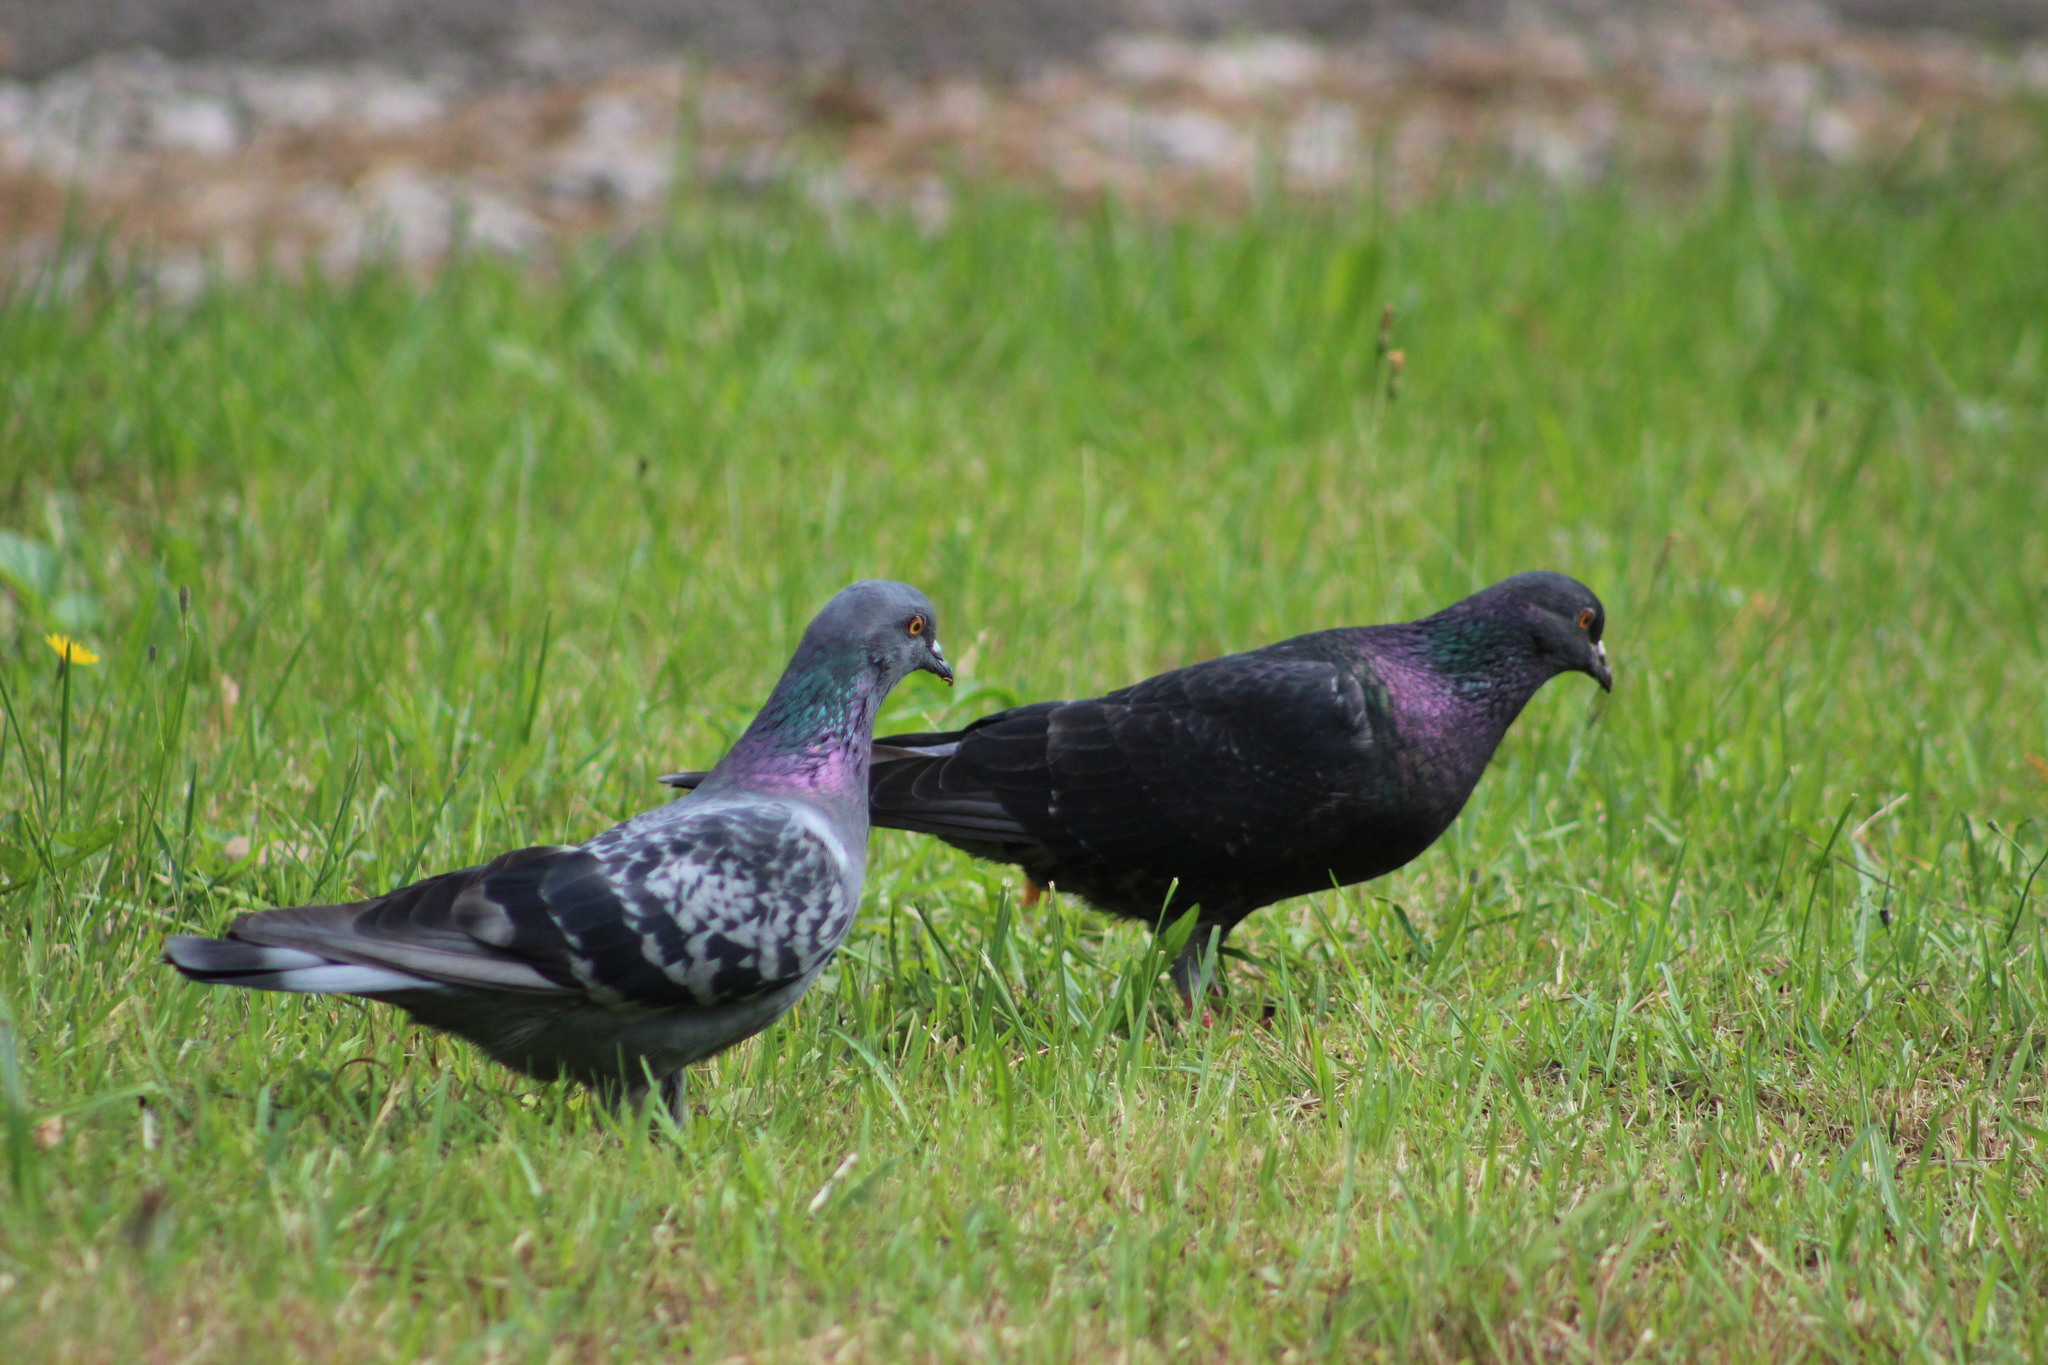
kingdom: Animalia
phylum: Chordata
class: Aves
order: Columbiformes
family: Columbidae
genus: Columba
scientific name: Columba livia
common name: Rock pigeon
